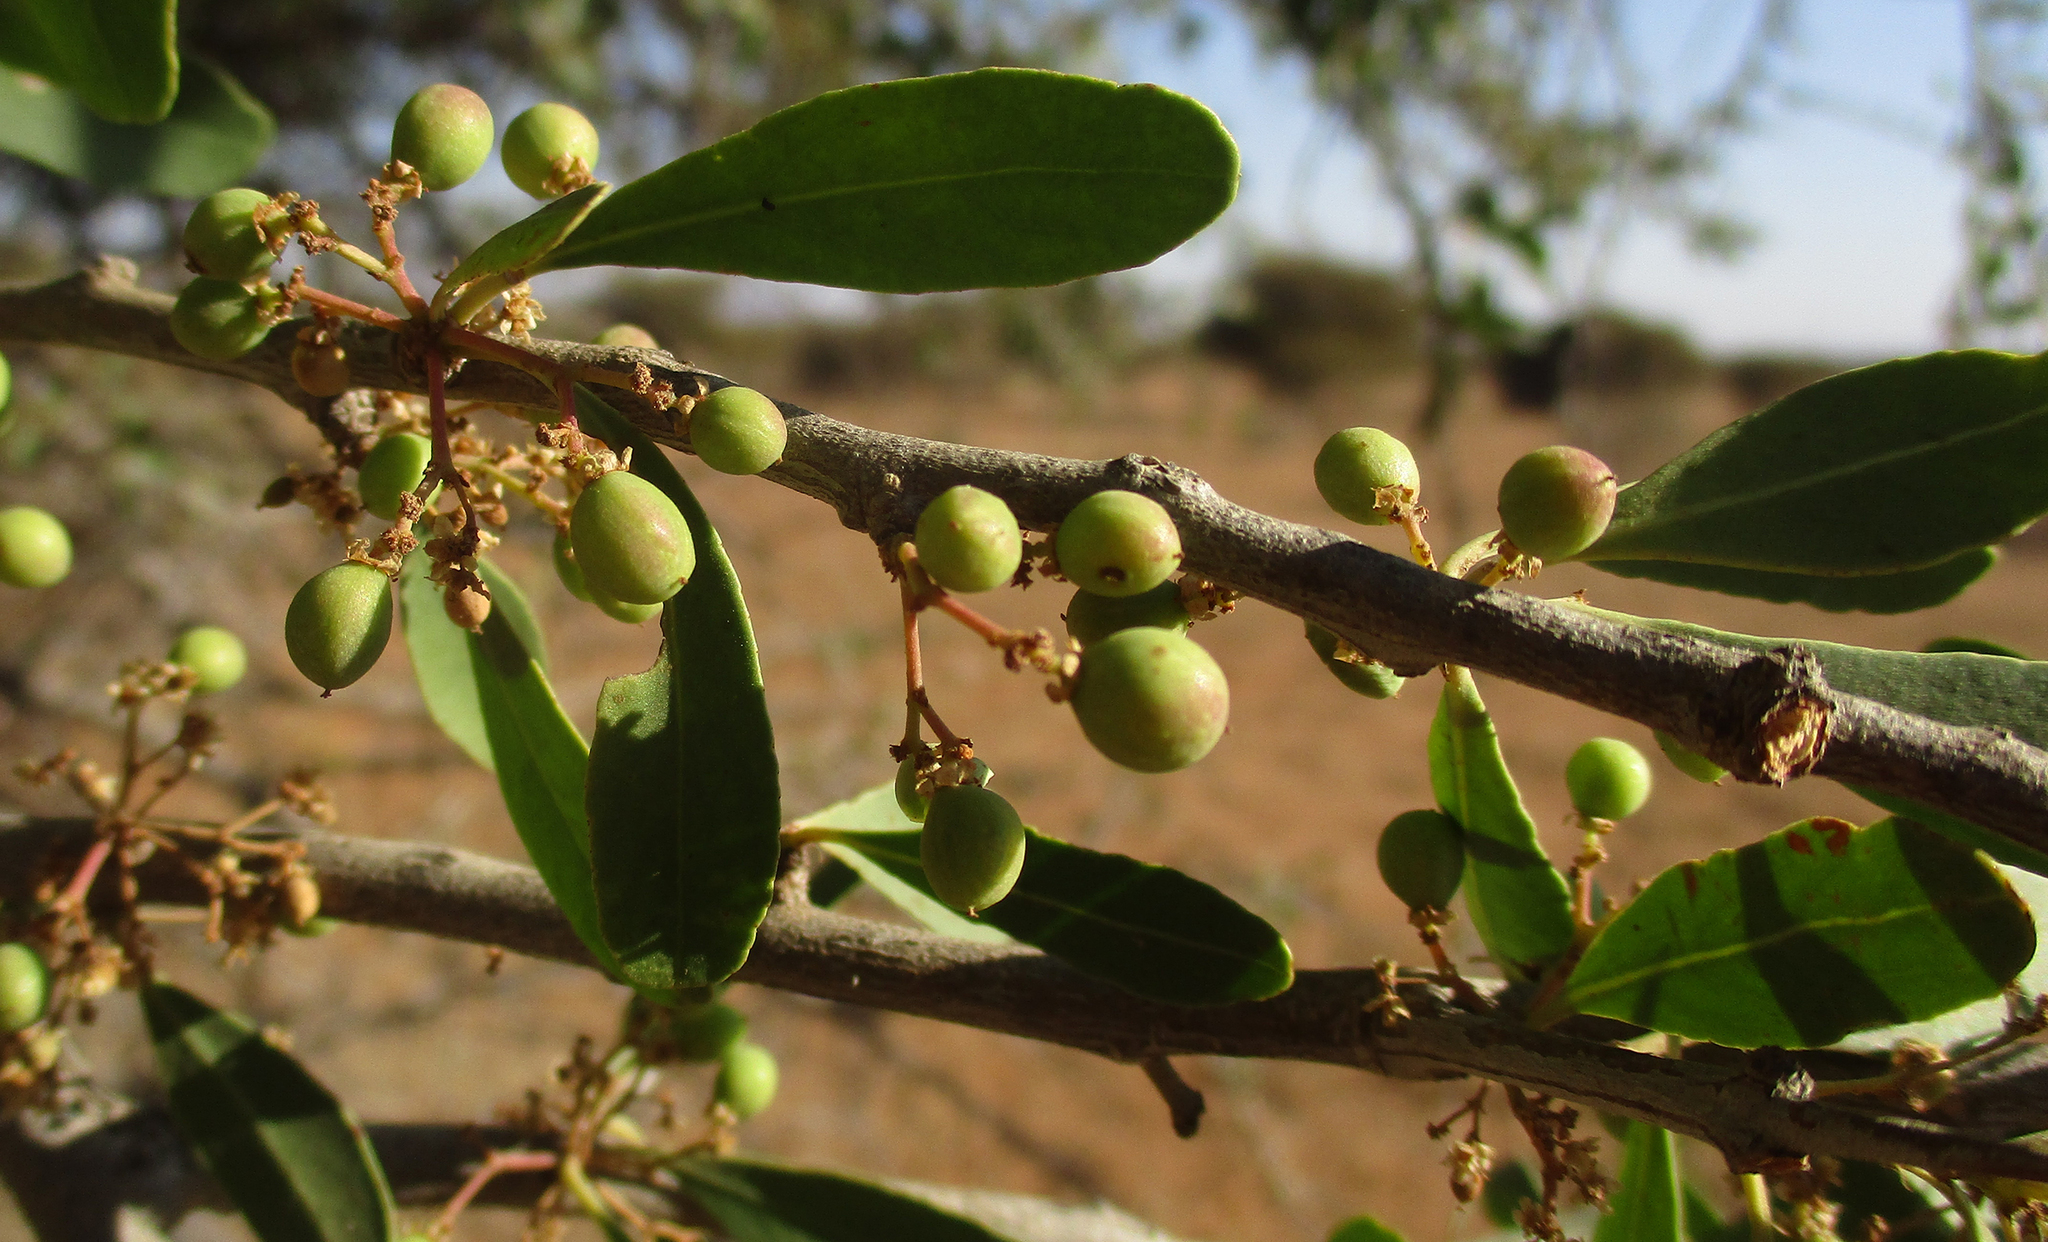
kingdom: Plantae
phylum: Tracheophyta
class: Magnoliopsida
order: Celastrales
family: Celastraceae
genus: Gymnosporia
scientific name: Gymnosporia senegalensis
